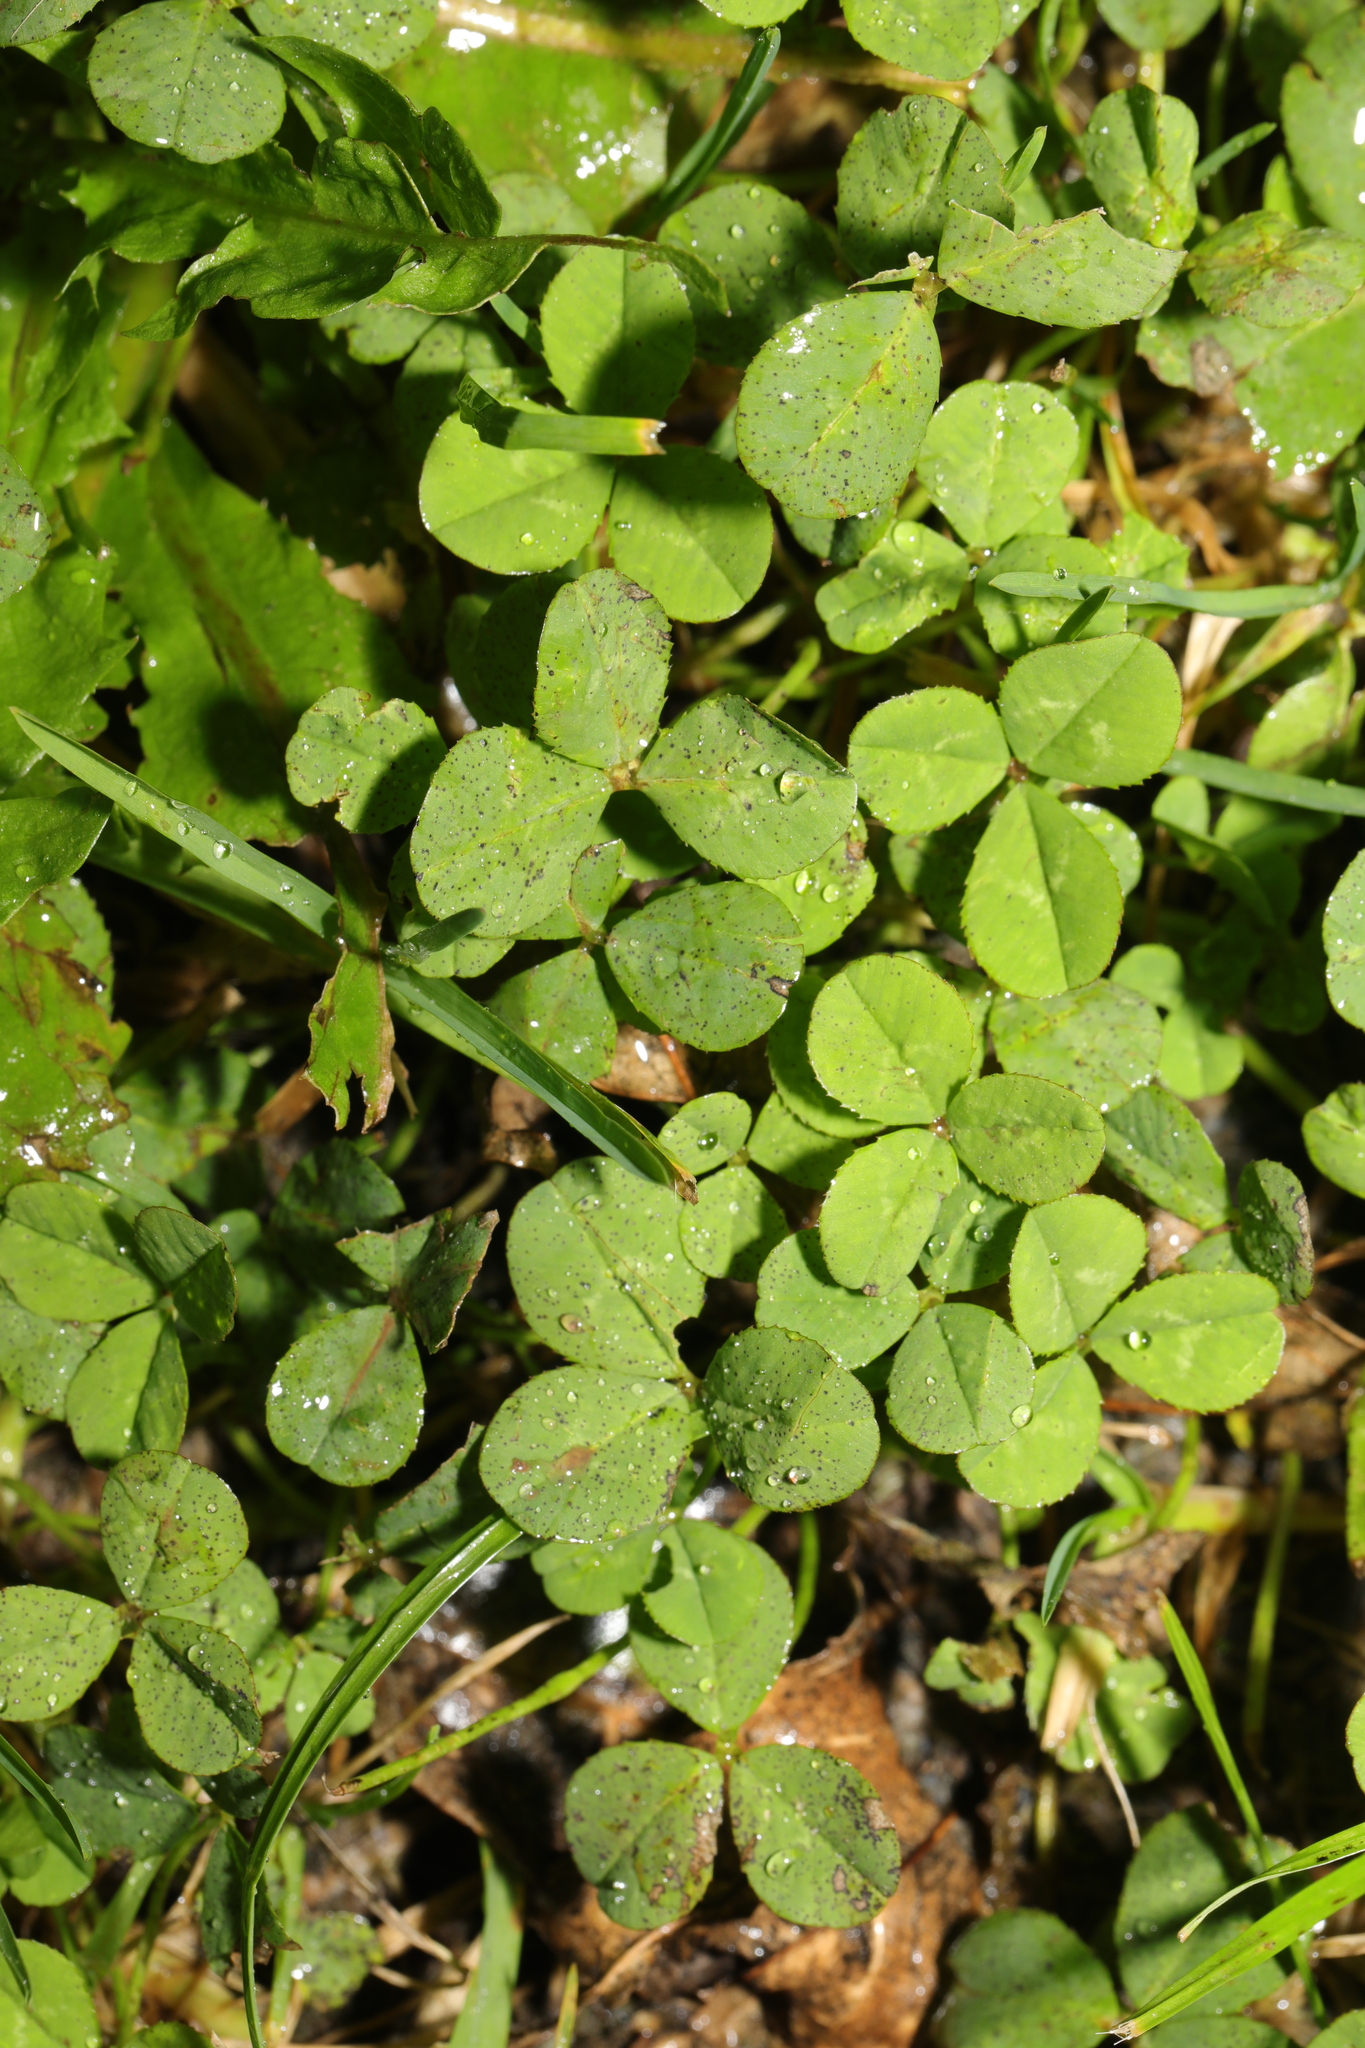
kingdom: Plantae
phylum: Tracheophyta
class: Magnoliopsida
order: Fabales
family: Fabaceae
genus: Trifolium
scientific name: Trifolium repens
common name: White clover
